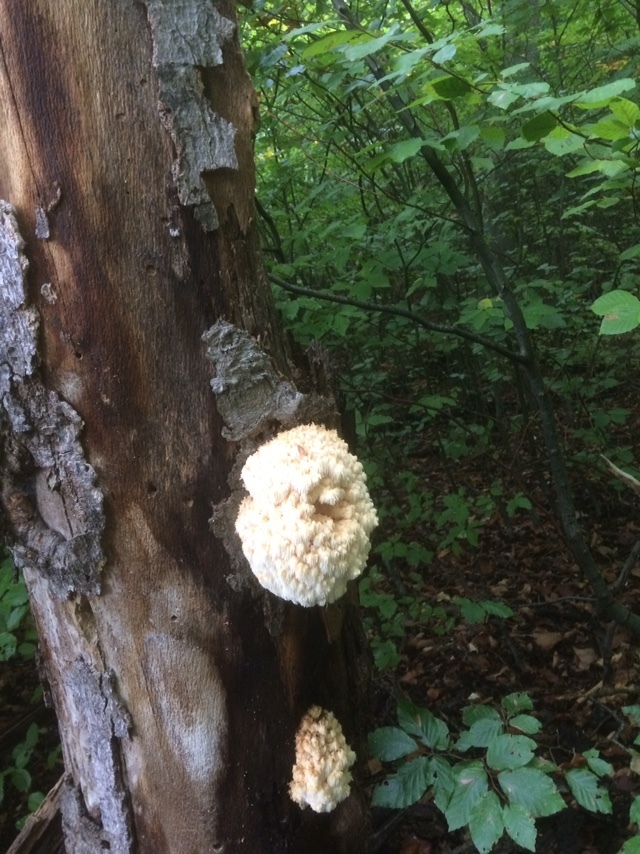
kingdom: Fungi
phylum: Basidiomycota
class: Agaricomycetes
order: Russulales
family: Hericiaceae
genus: Hericium
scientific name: Hericium coralloides
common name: Coral tooth
